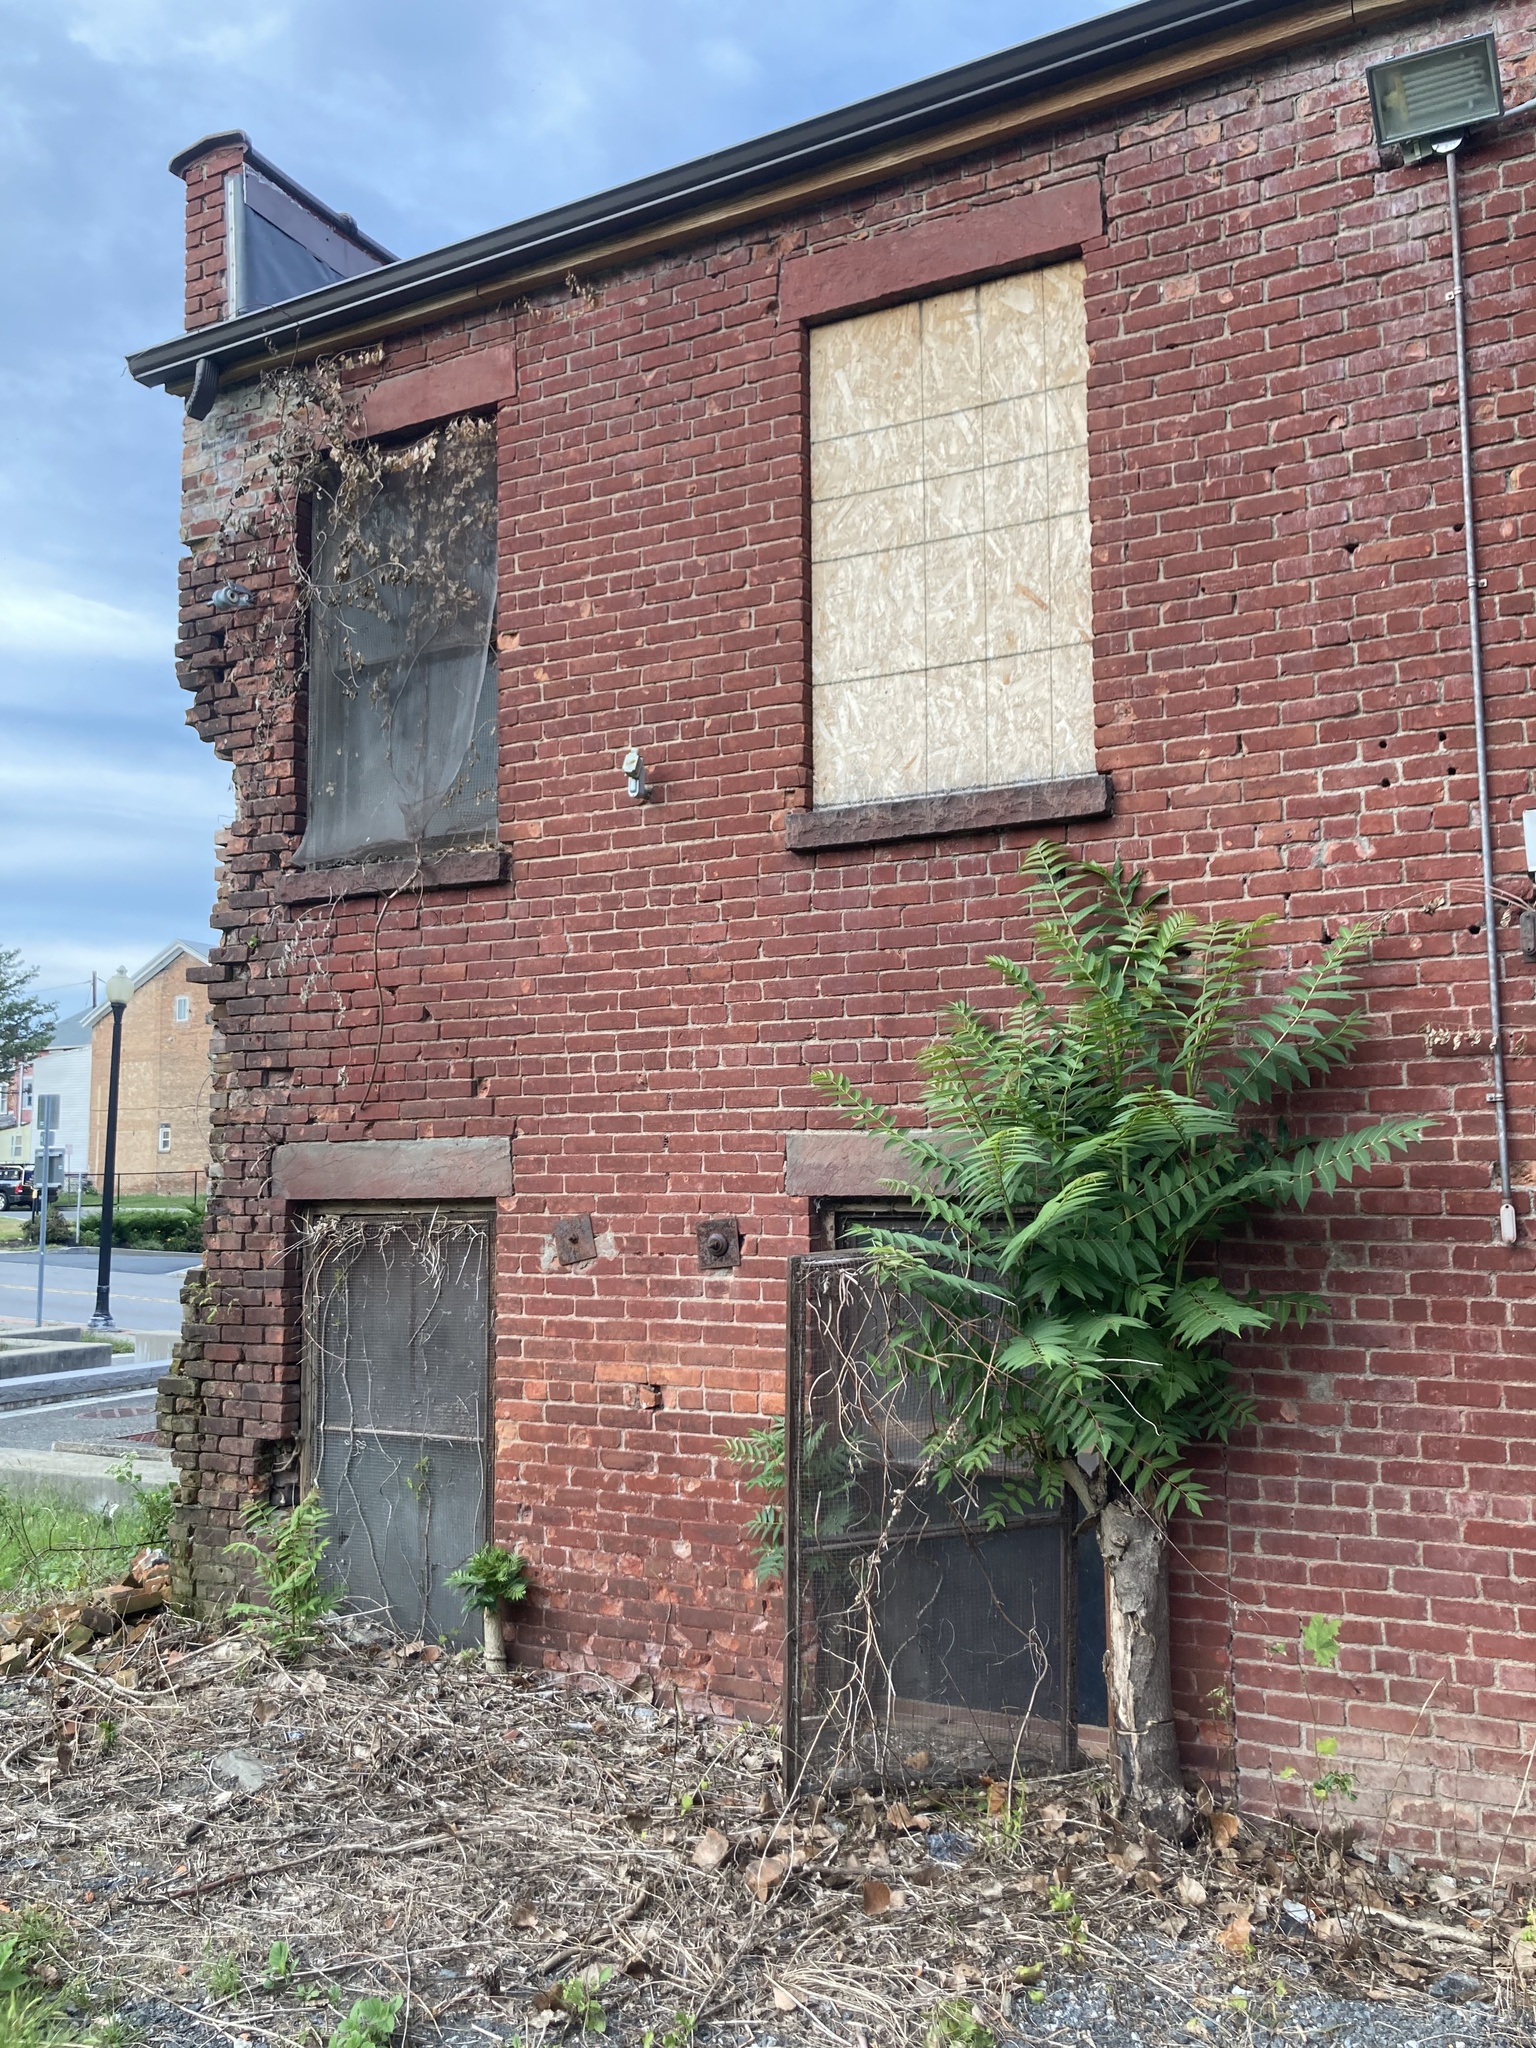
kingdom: Plantae
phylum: Tracheophyta
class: Magnoliopsida
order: Sapindales
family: Simaroubaceae
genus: Ailanthus
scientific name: Ailanthus altissima
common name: Tree-of-heaven
